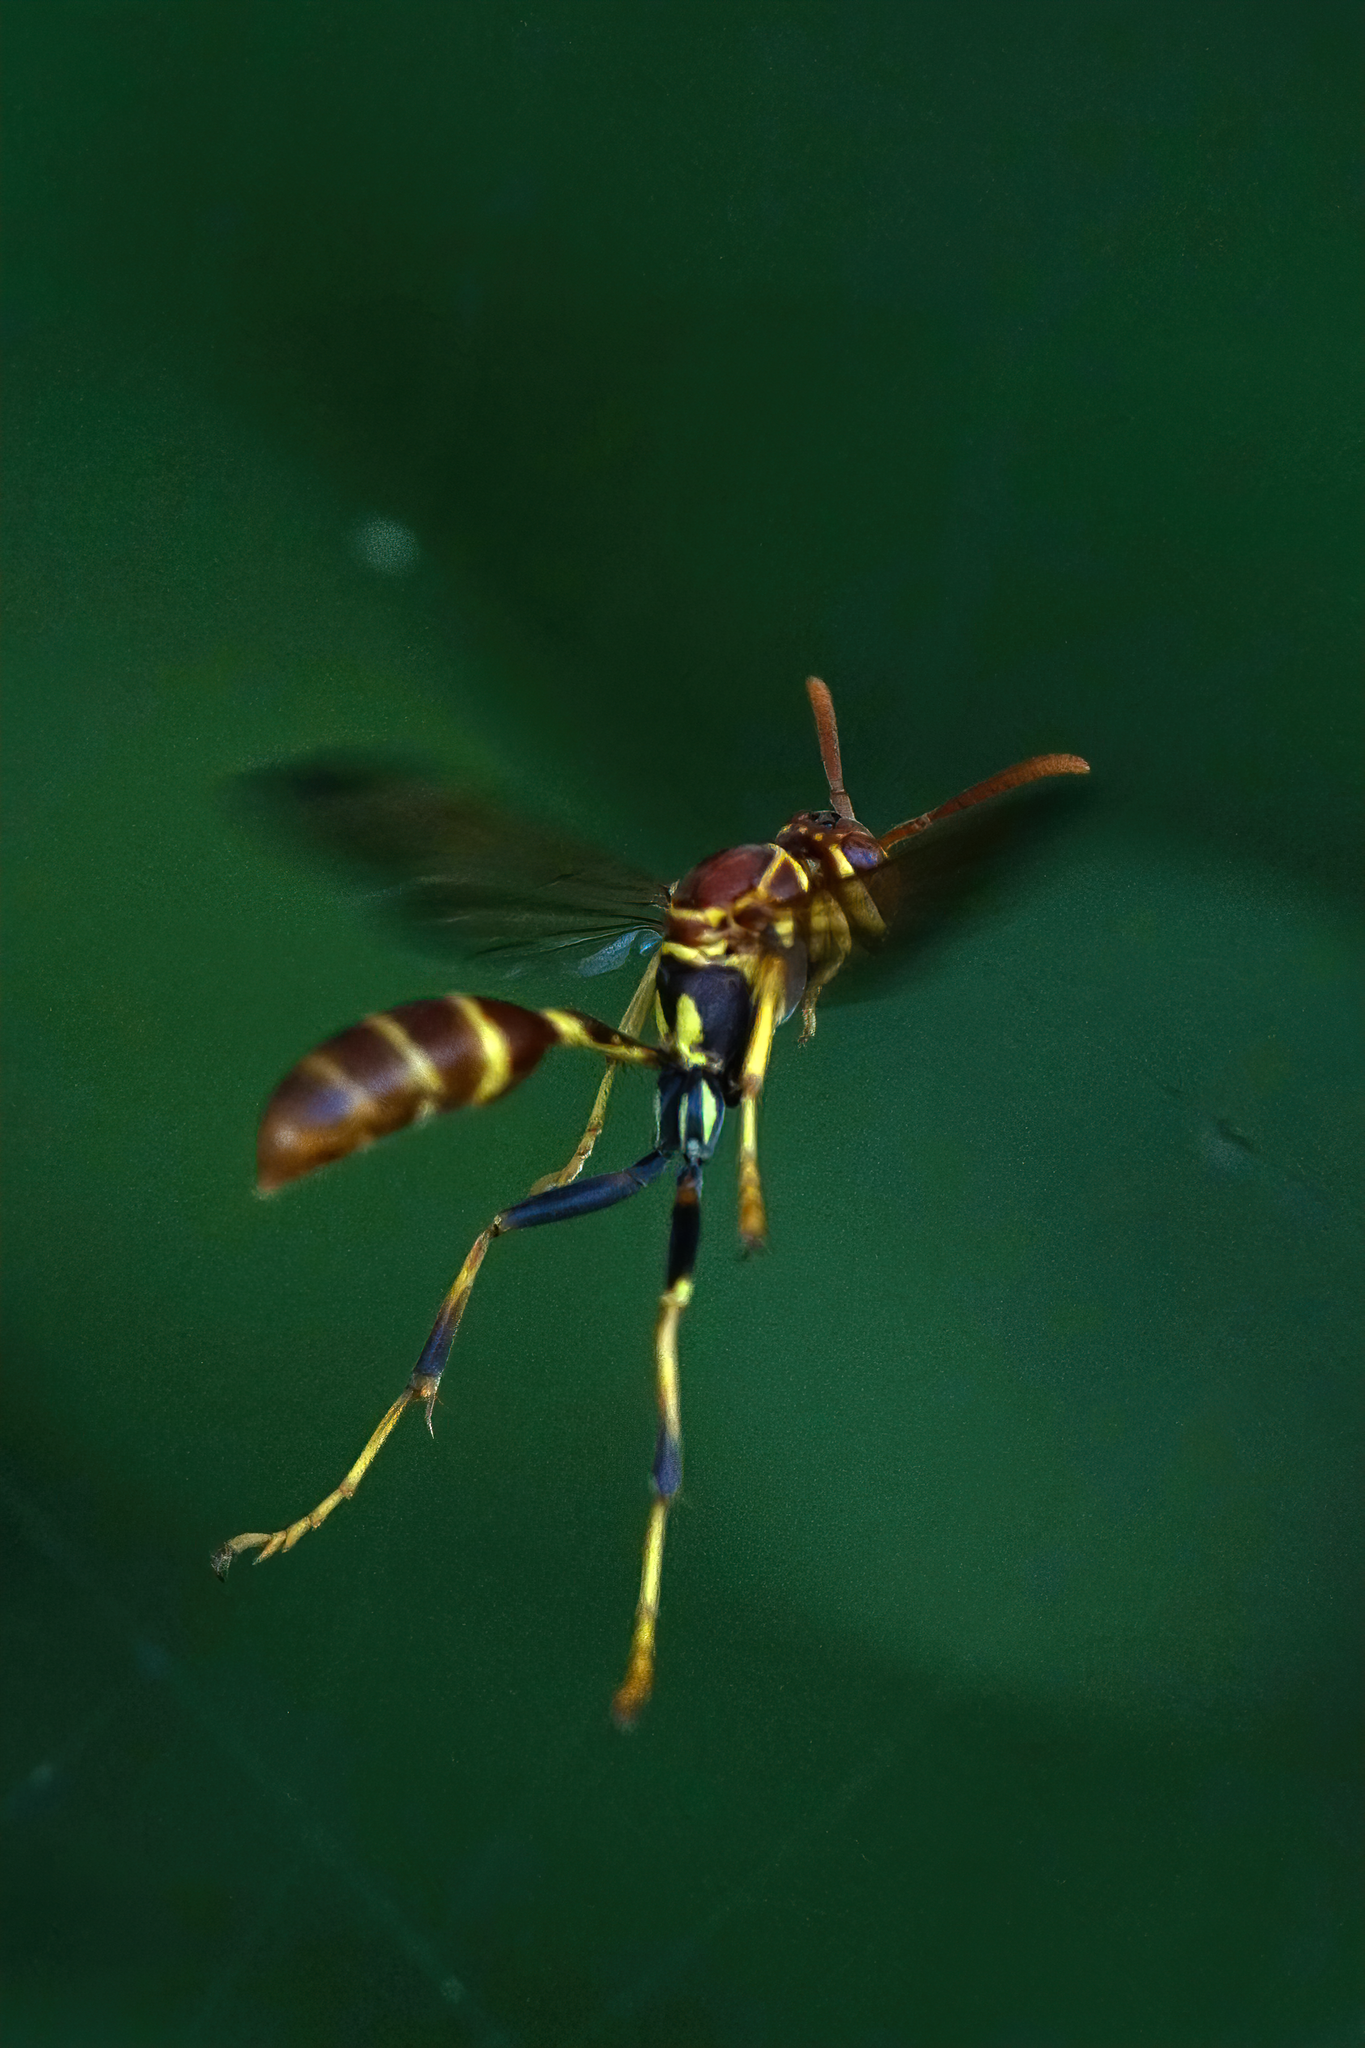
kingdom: Animalia
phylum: Arthropoda
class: Insecta
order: Hymenoptera
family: Vespidae
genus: Mischocyttarus
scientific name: Mischocyttarus mexicanus
